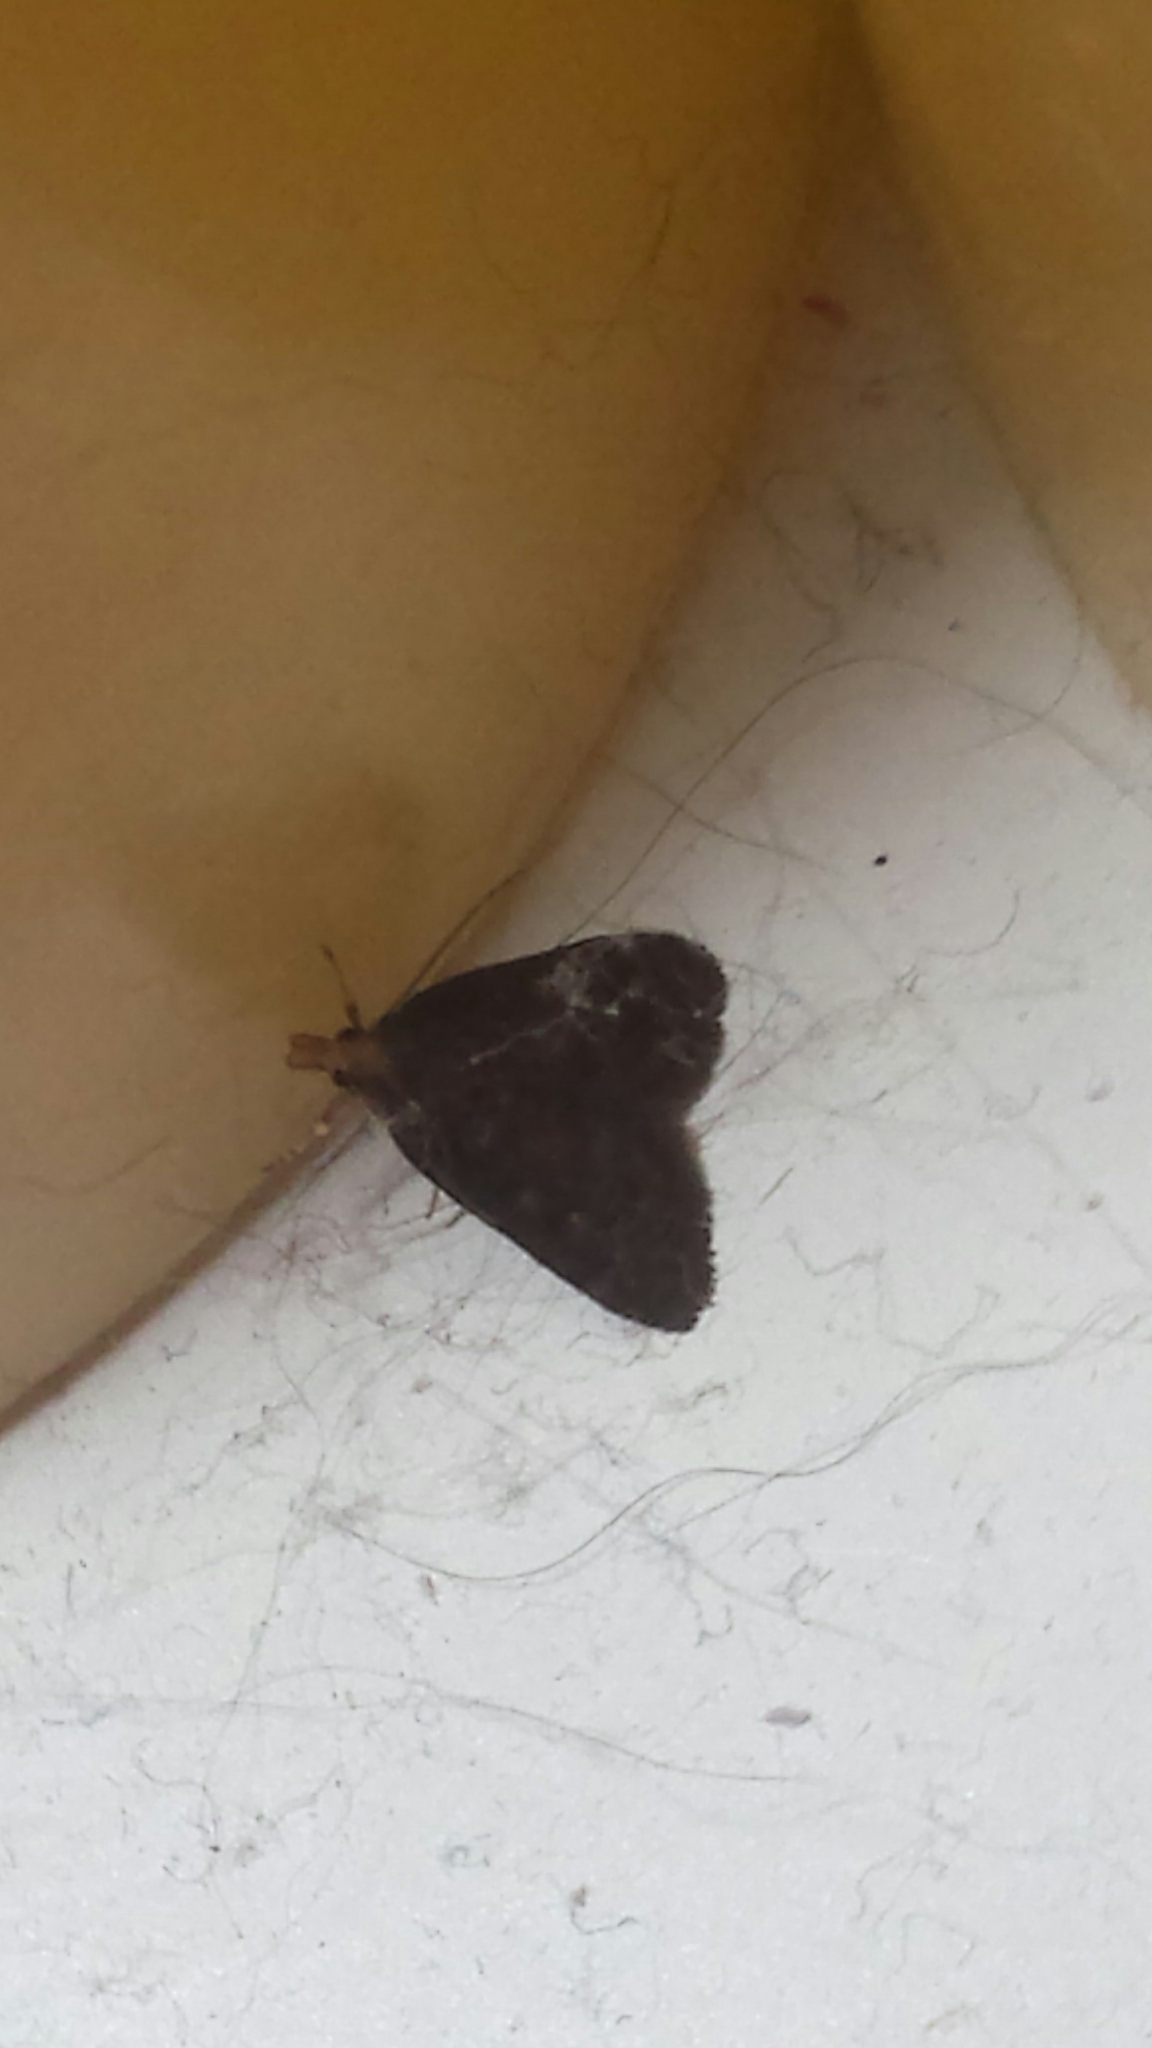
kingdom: Animalia
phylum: Arthropoda
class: Insecta
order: Lepidoptera
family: Crambidae
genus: Pyrausta
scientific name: Pyrausta merrickalis
